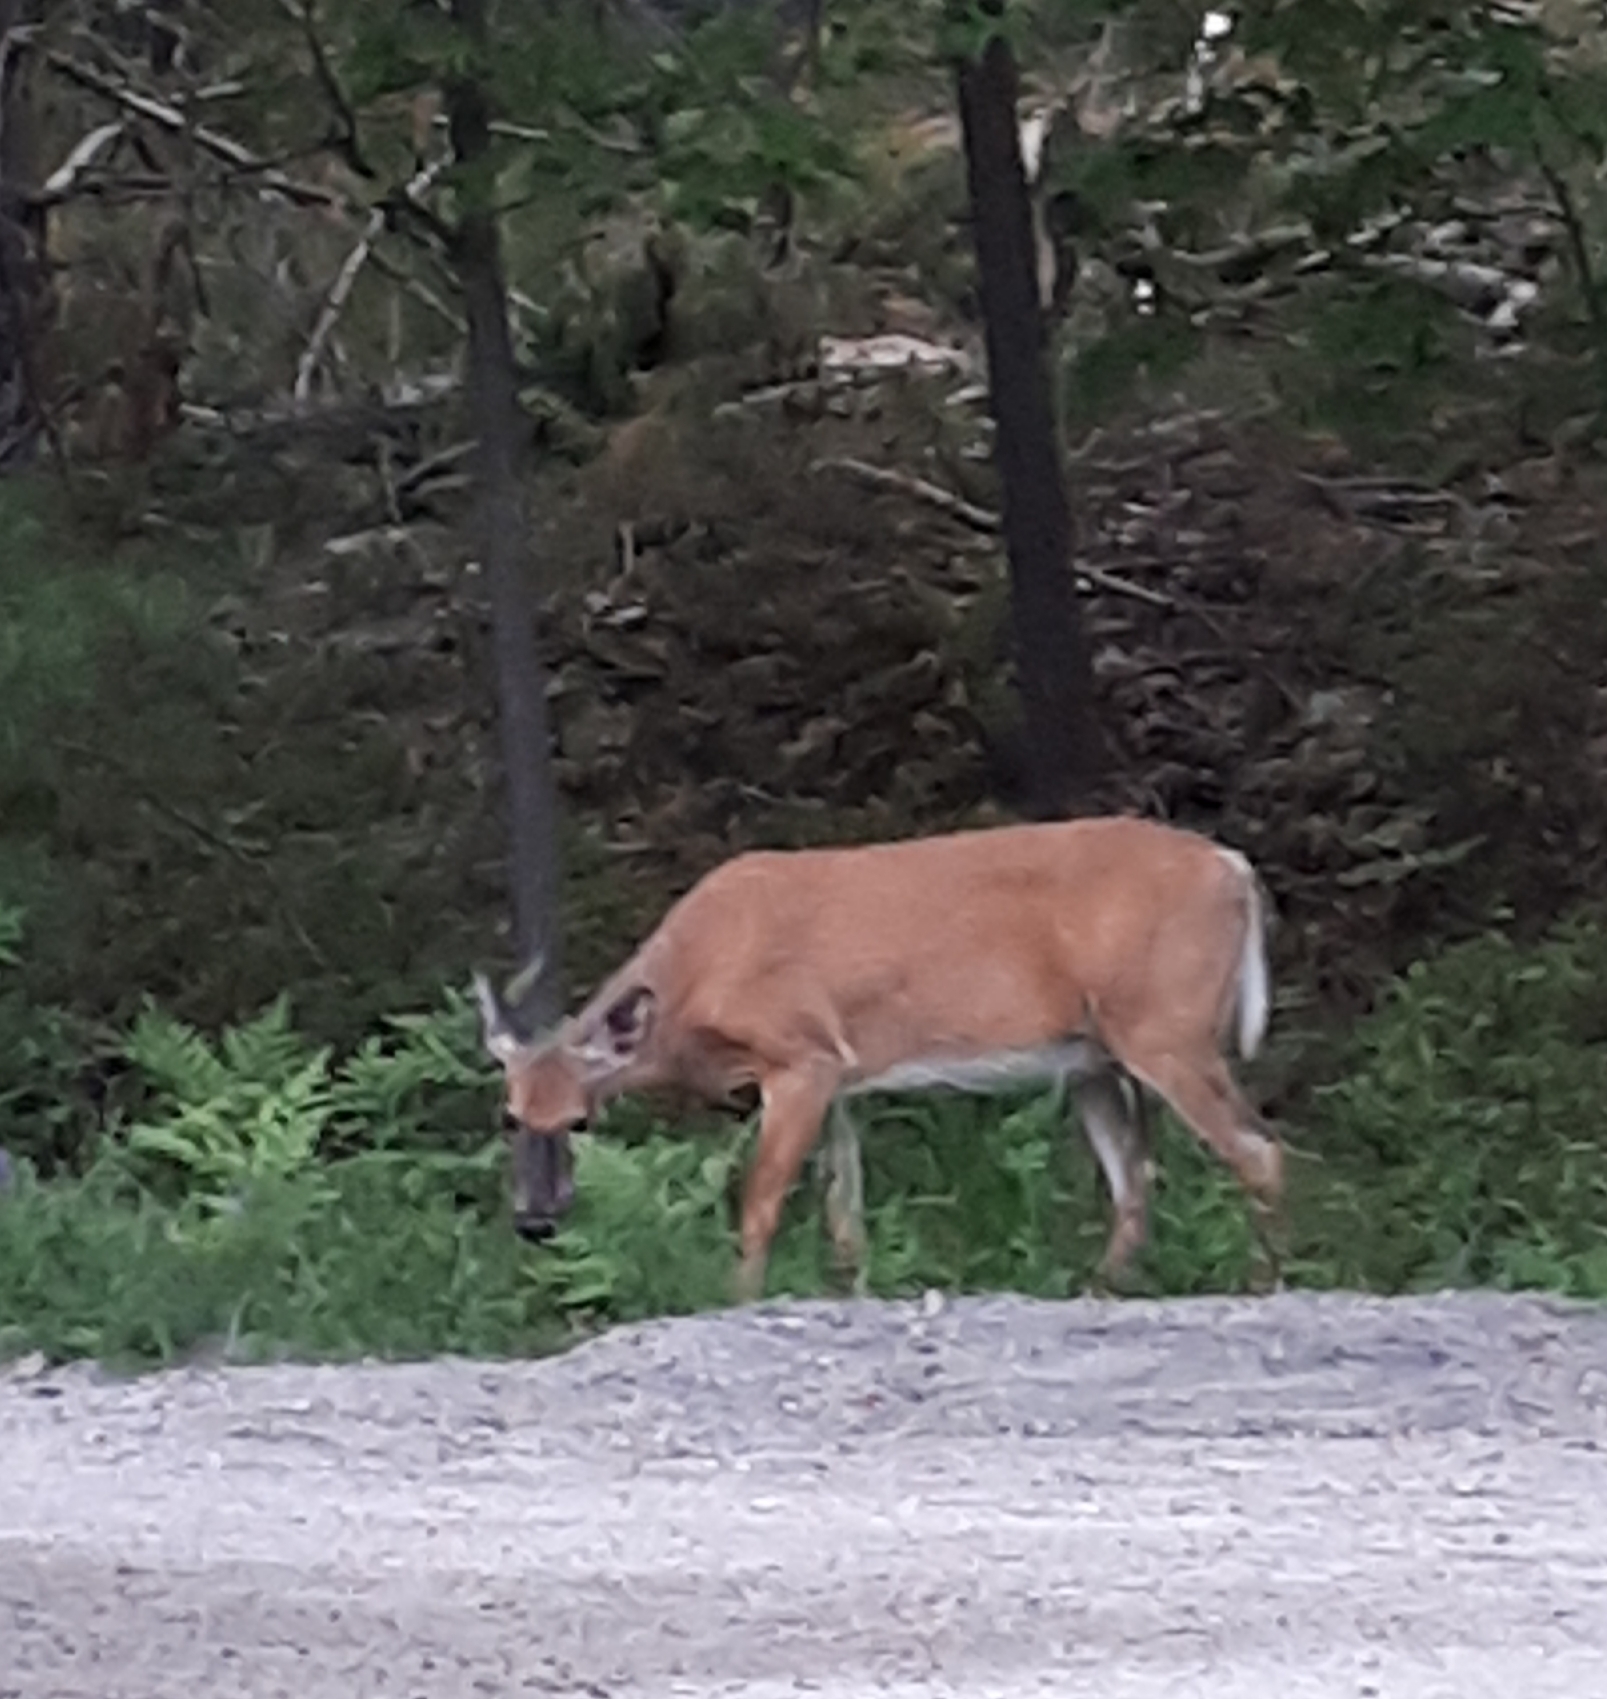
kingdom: Animalia
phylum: Chordata
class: Mammalia
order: Artiodactyla
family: Cervidae
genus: Odocoileus
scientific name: Odocoileus virginianus
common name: White-tailed deer
